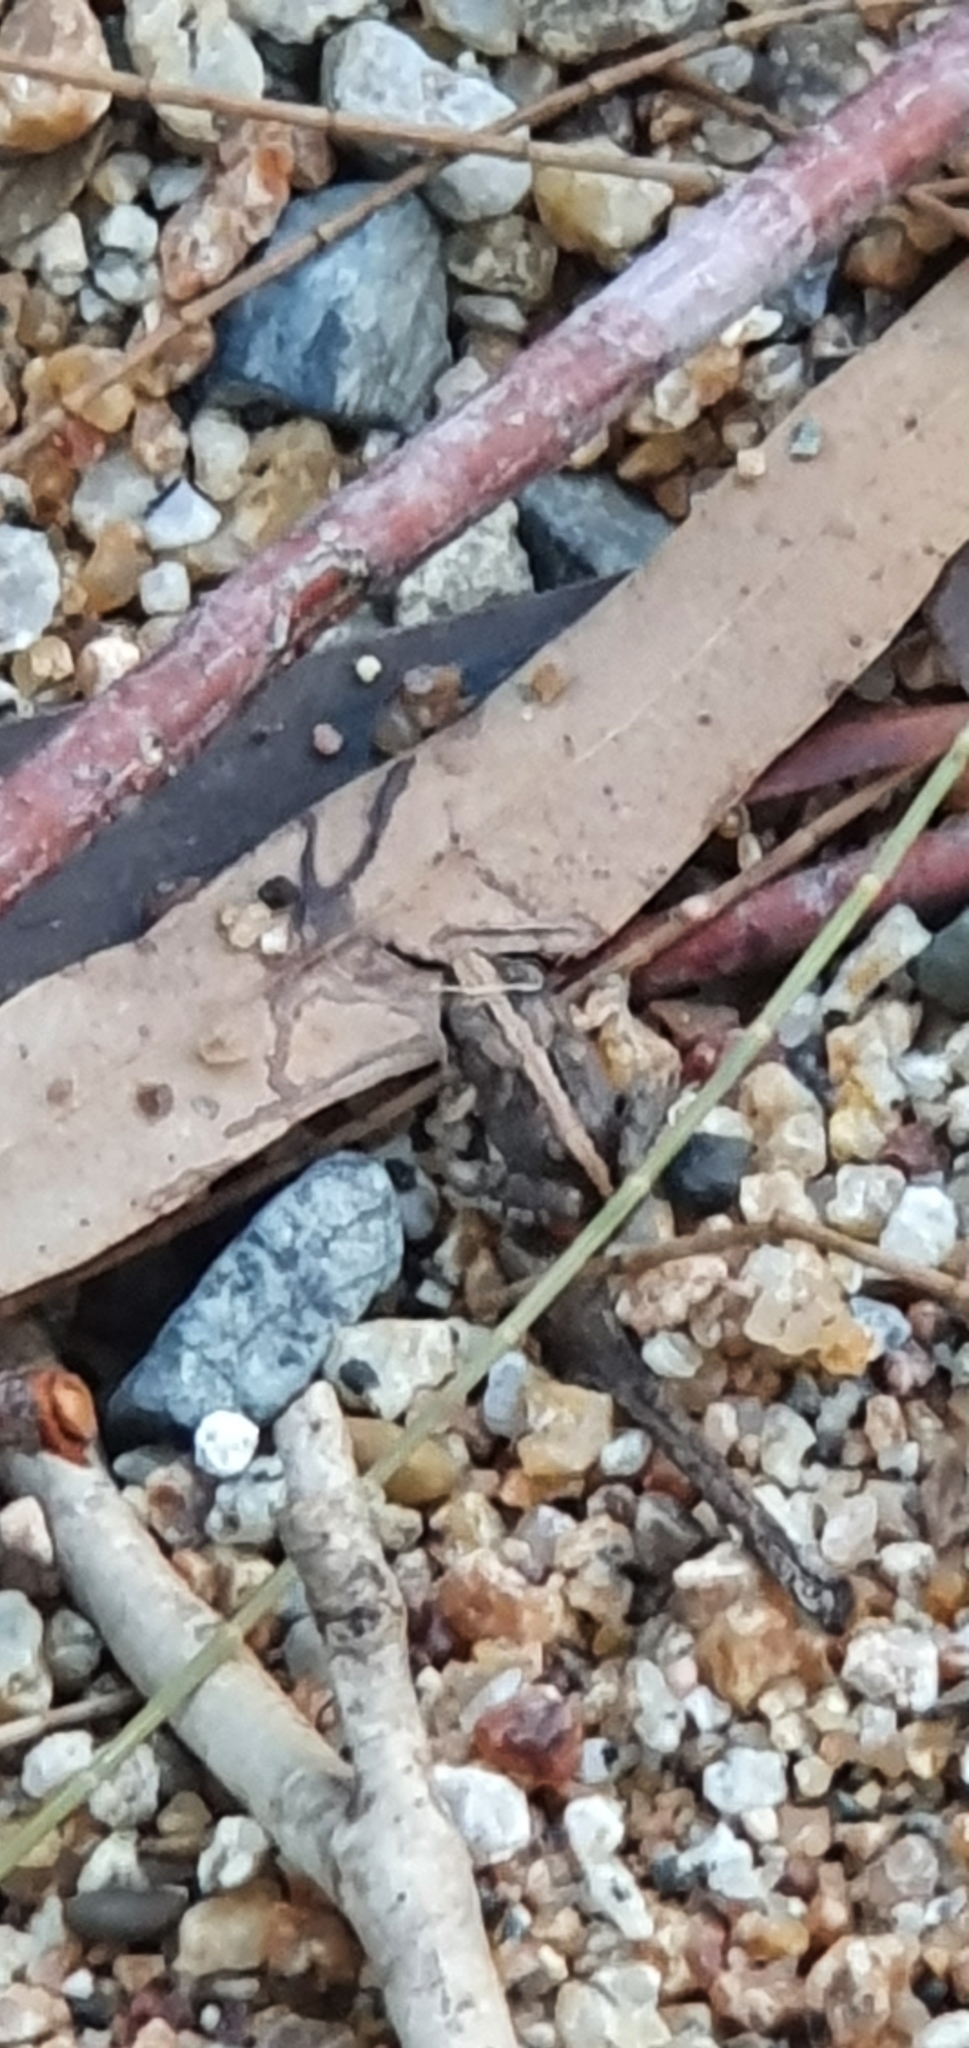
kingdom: Animalia
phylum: Chordata
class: Amphibia
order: Anura
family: Limnodynastidae
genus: Platyplectrum
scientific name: Platyplectrum ornatum
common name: Ornate burrowing frog
